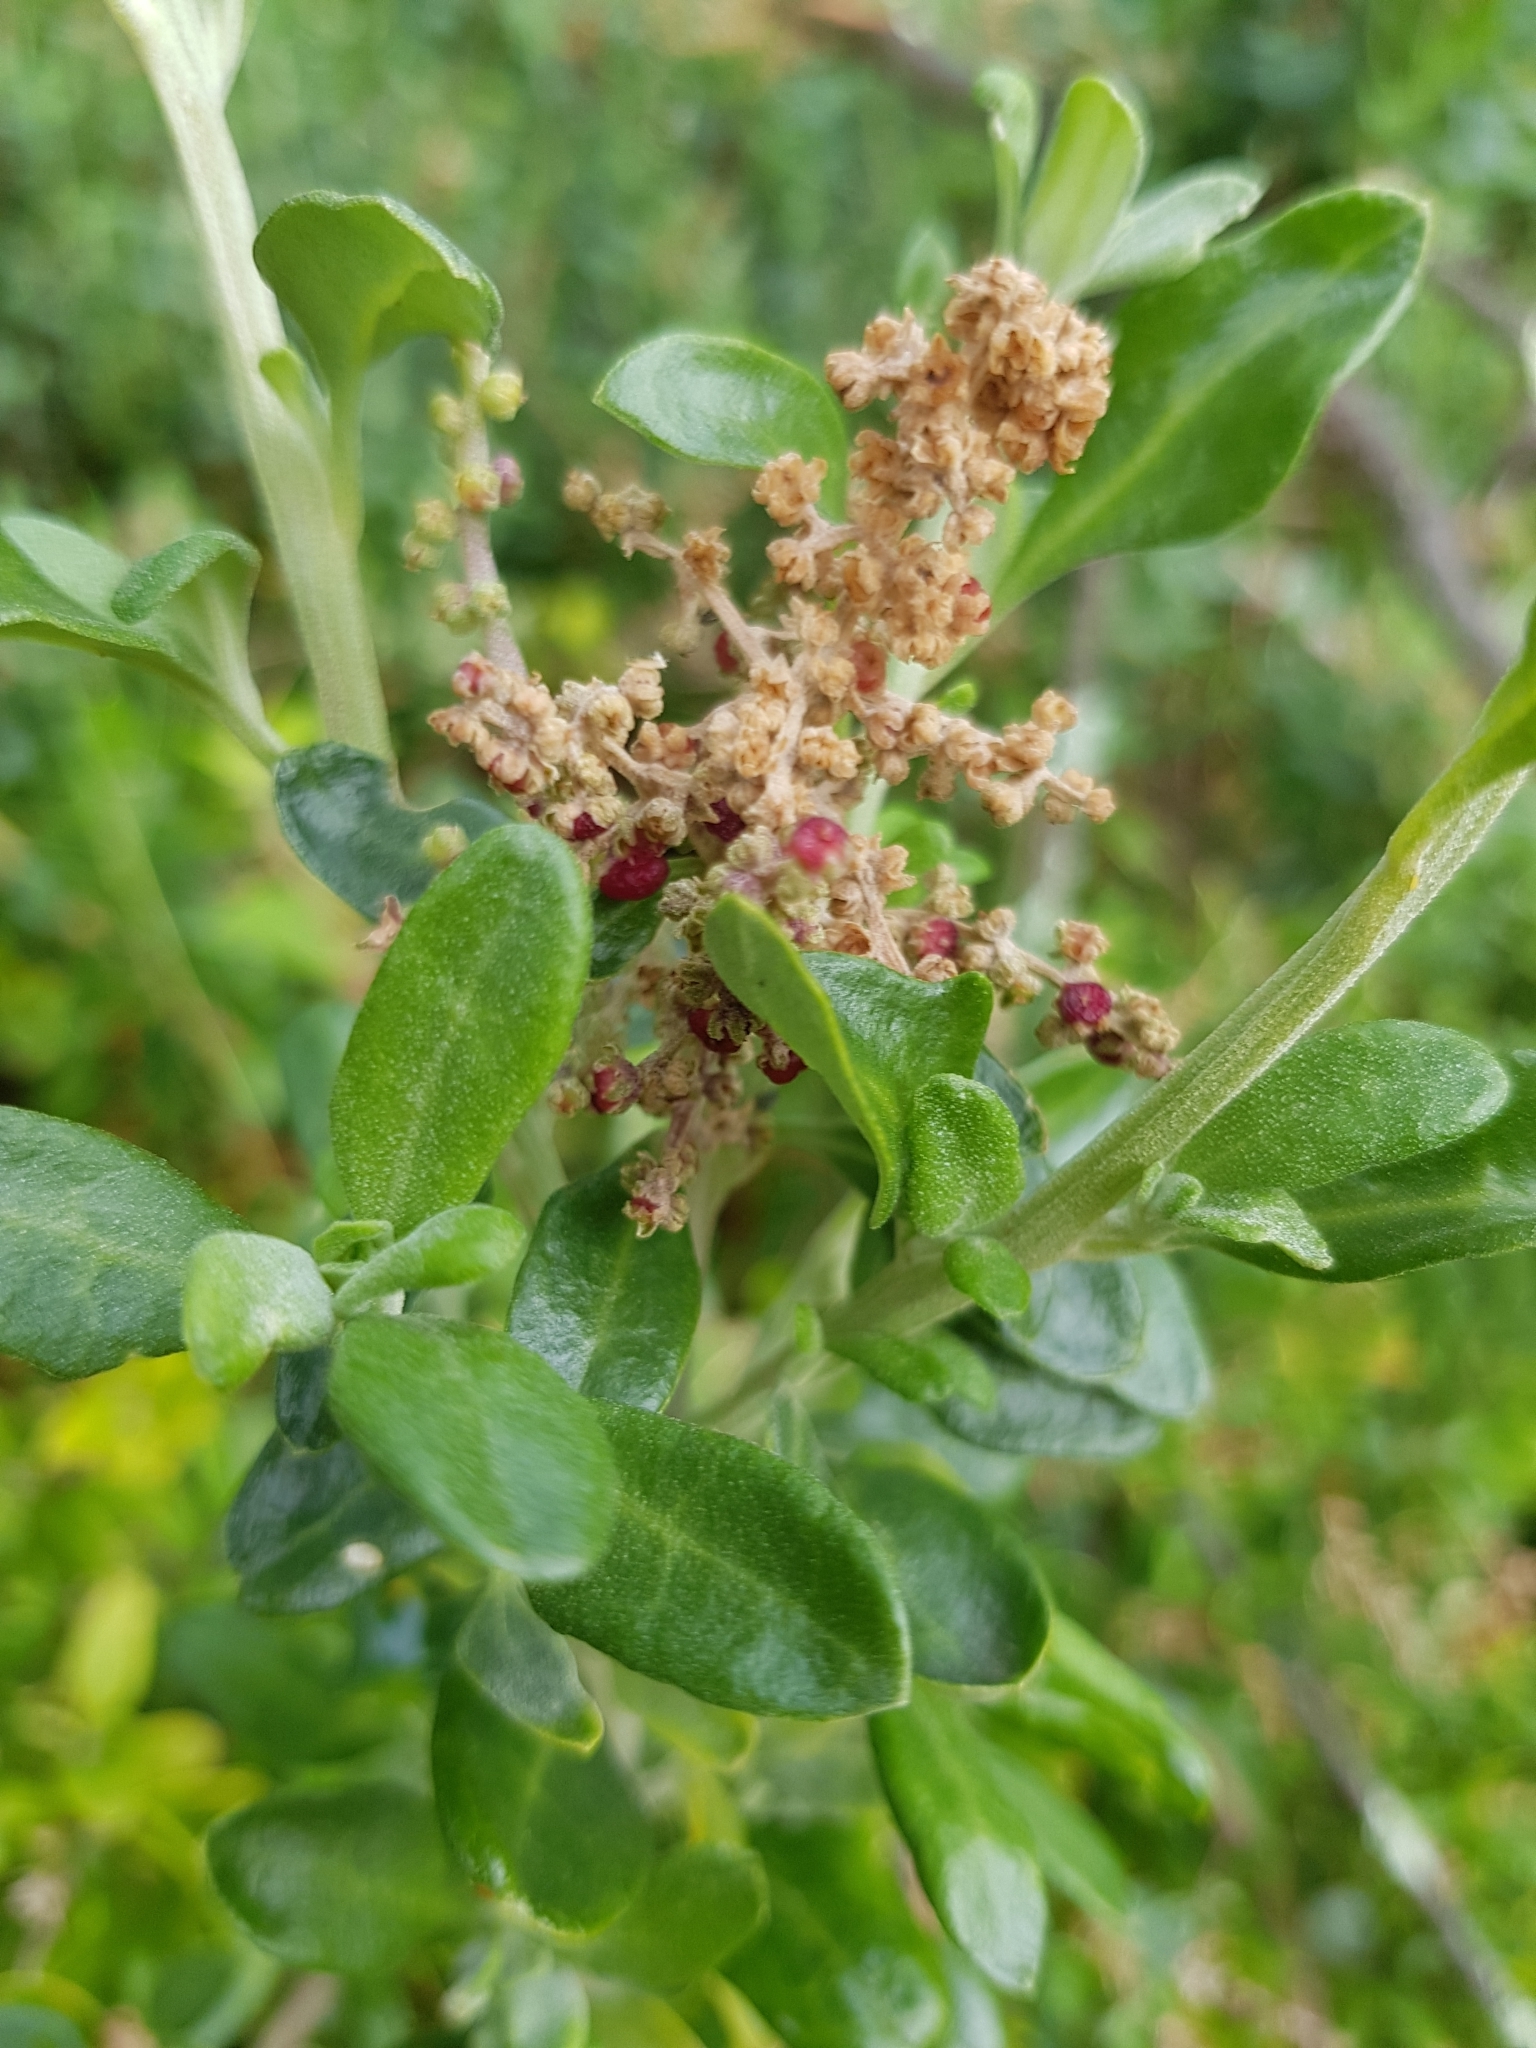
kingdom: Plantae
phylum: Tracheophyta
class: Magnoliopsida
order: Caryophyllales
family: Amaranthaceae
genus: Chenopodium
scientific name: Chenopodium candolleanum
